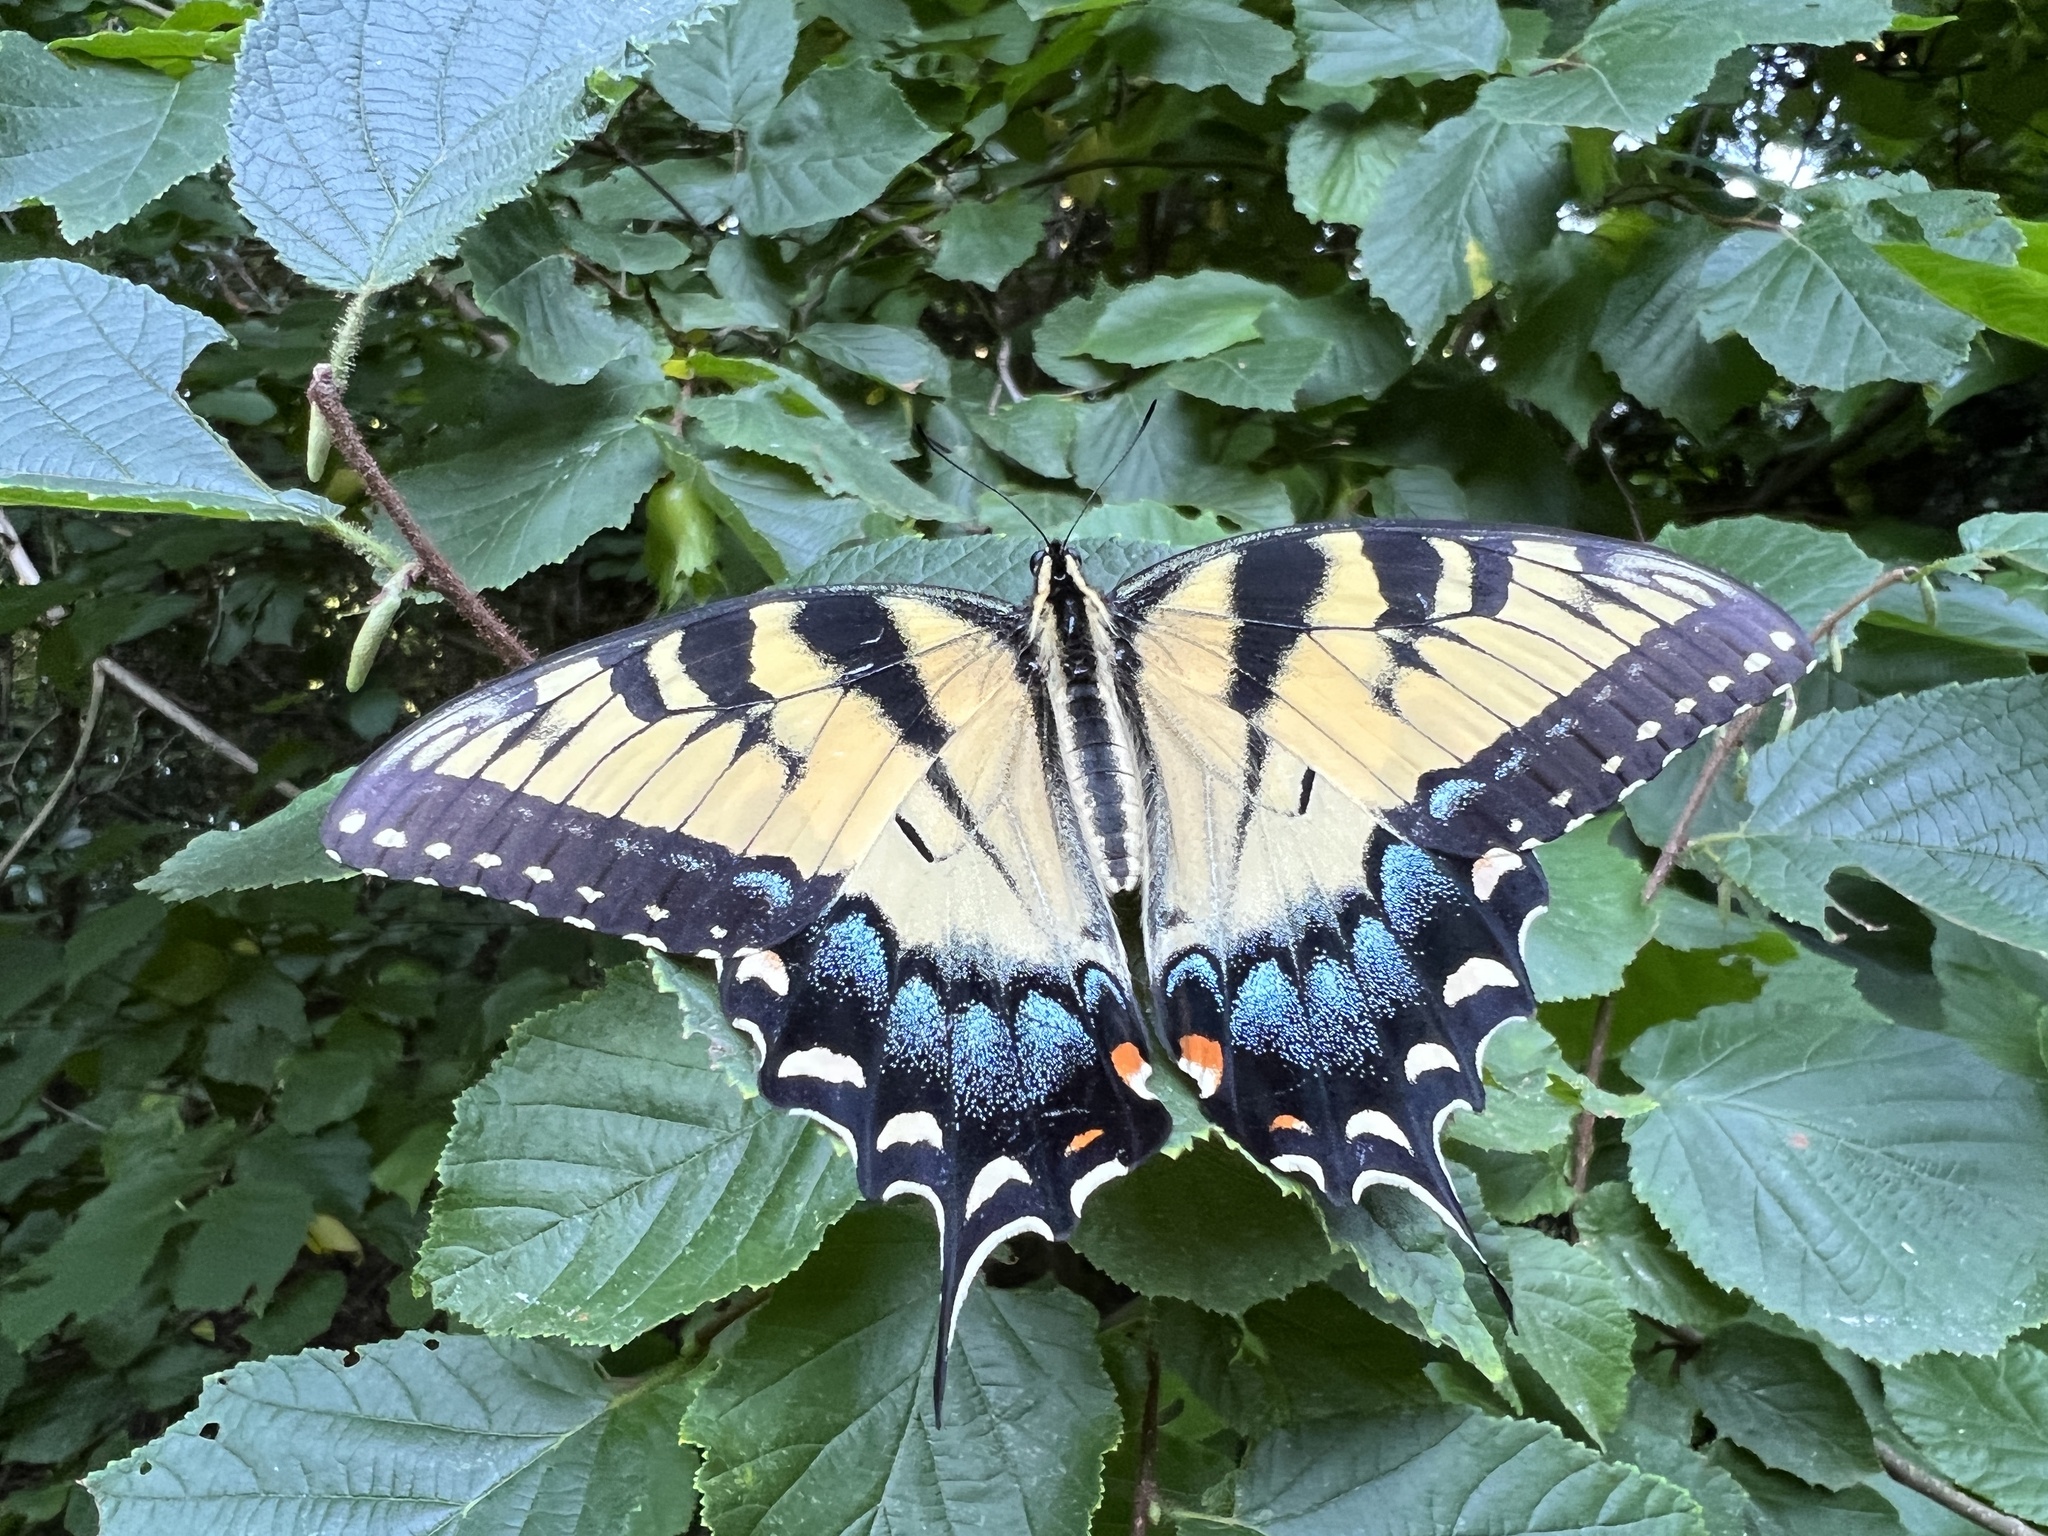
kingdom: Animalia
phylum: Arthropoda
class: Insecta
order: Lepidoptera
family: Papilionidae
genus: Papilio
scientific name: Papilio glaucus
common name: Tiger swallowtail
